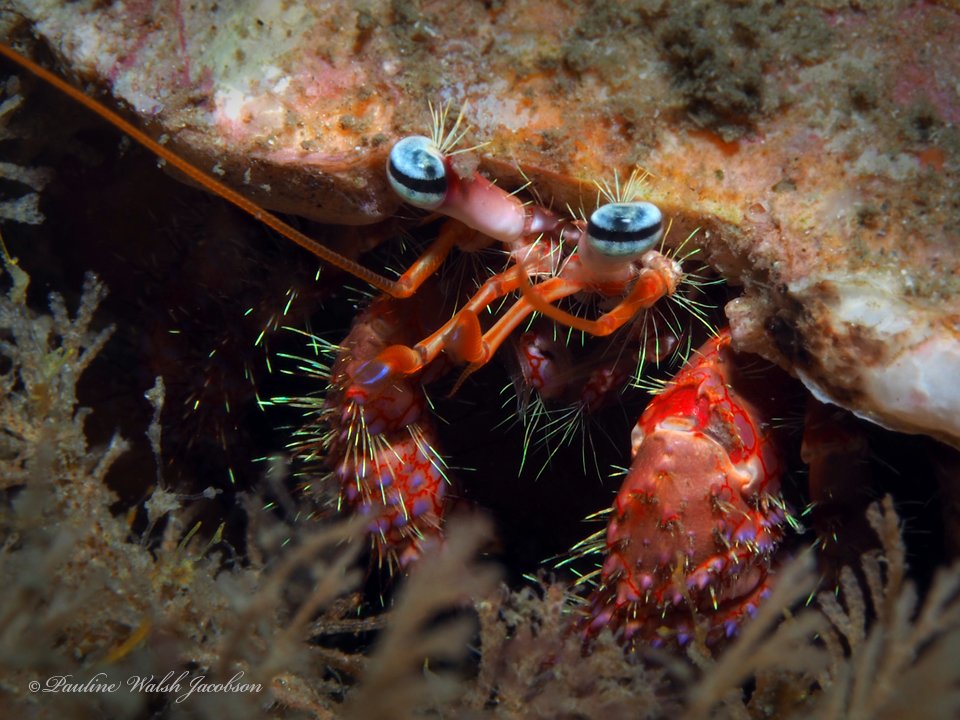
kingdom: Animalia
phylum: Arthropoda
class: Malacostraca
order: Decapoda
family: Diogenidae
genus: Dardanus
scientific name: Dardanus fucosus
